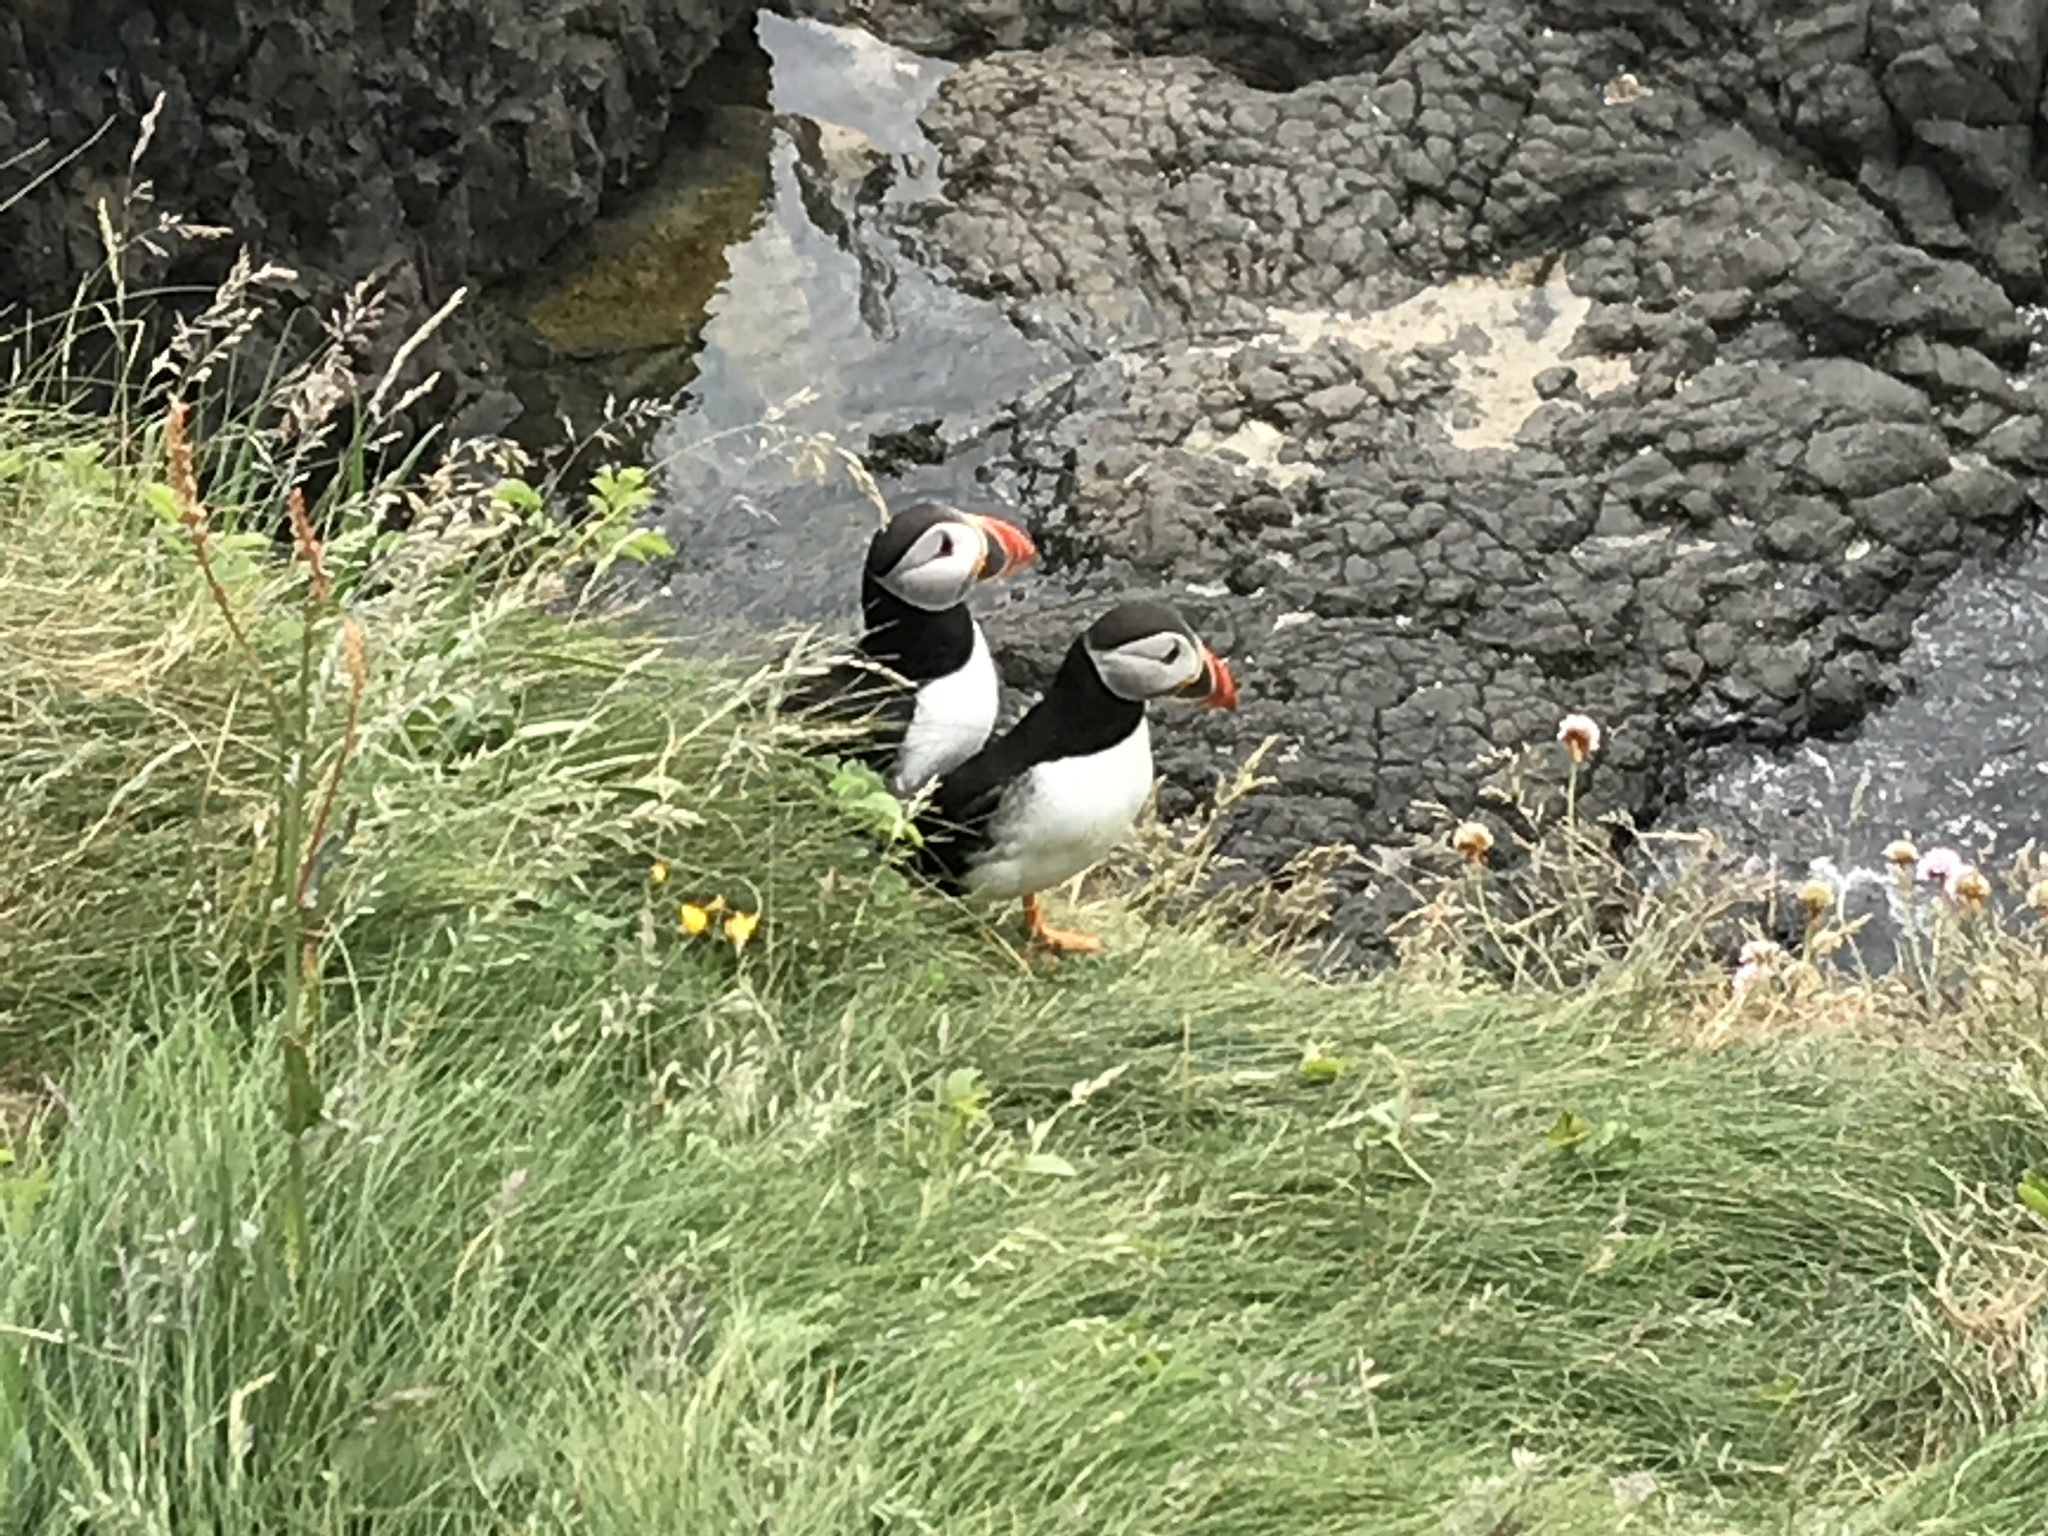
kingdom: Animalia
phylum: Chordata
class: Aves
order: Charadriiformes
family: Alcidae
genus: Fratercula
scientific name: Fratercula arctica
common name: Atlantic puffin
